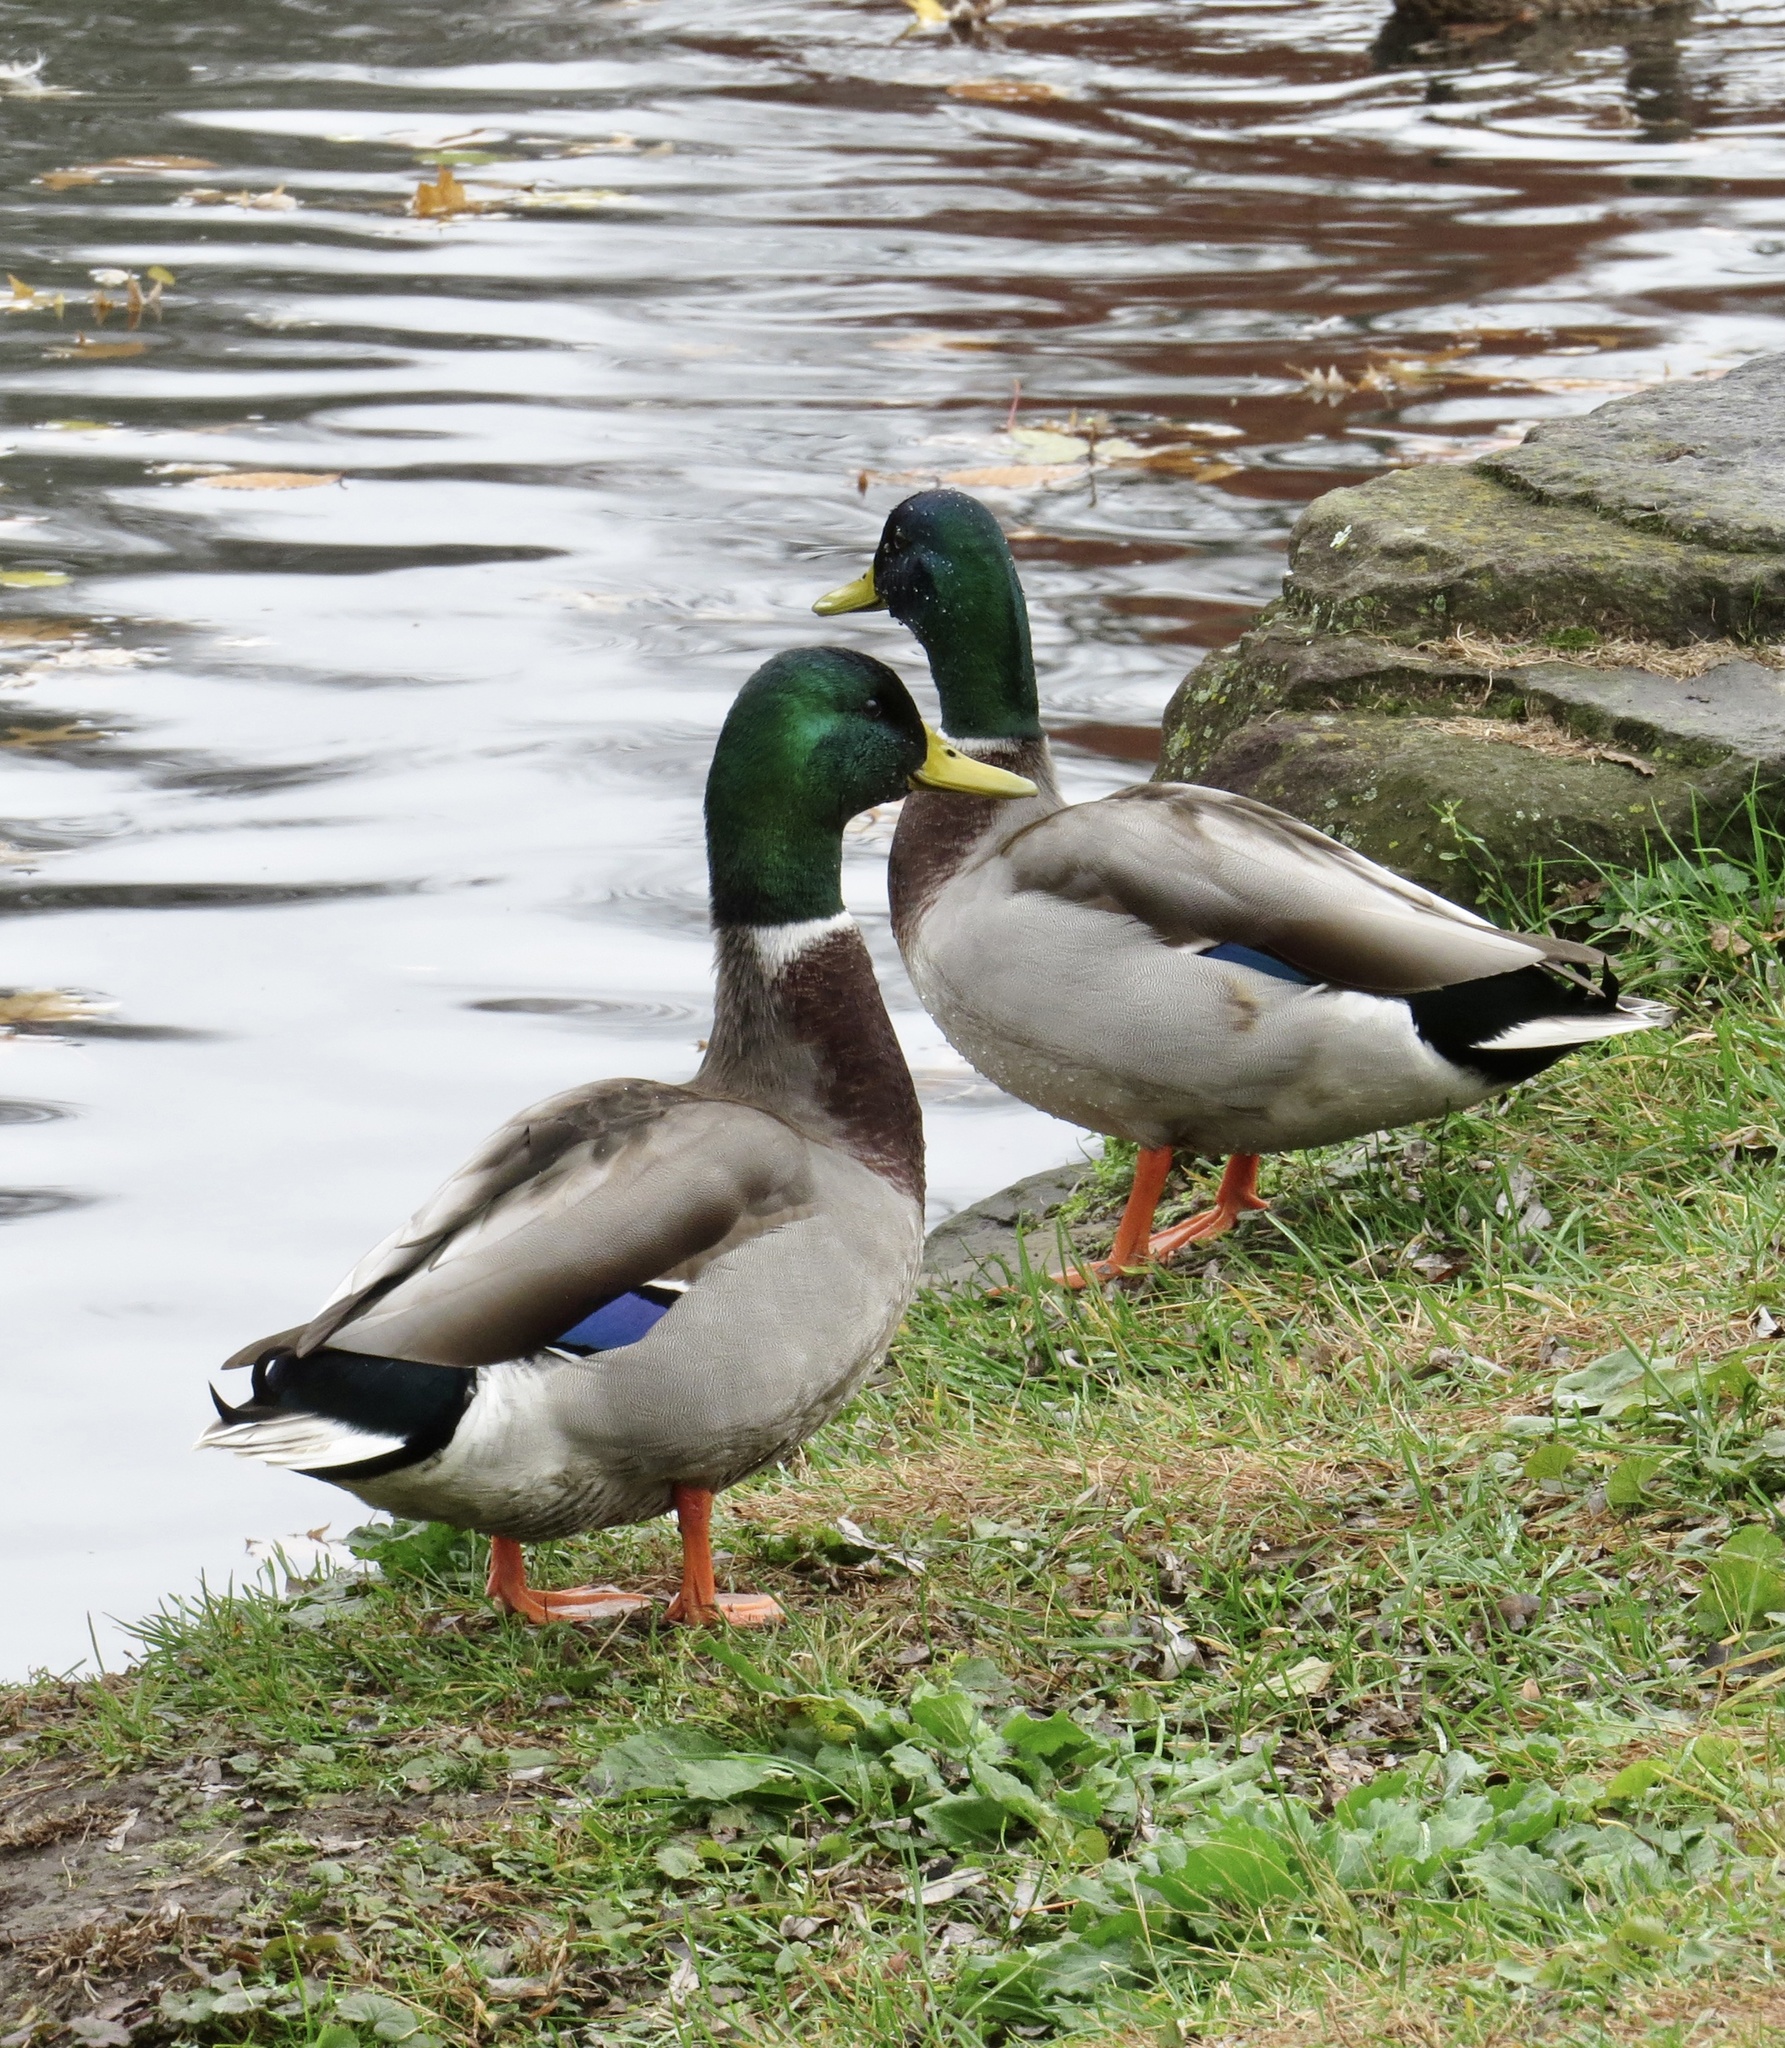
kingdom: Animalia
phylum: Chordata
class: Aves
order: Anseriformes
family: Anatidae
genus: Anas
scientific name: Anas platyrhynchos
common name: Mallard
